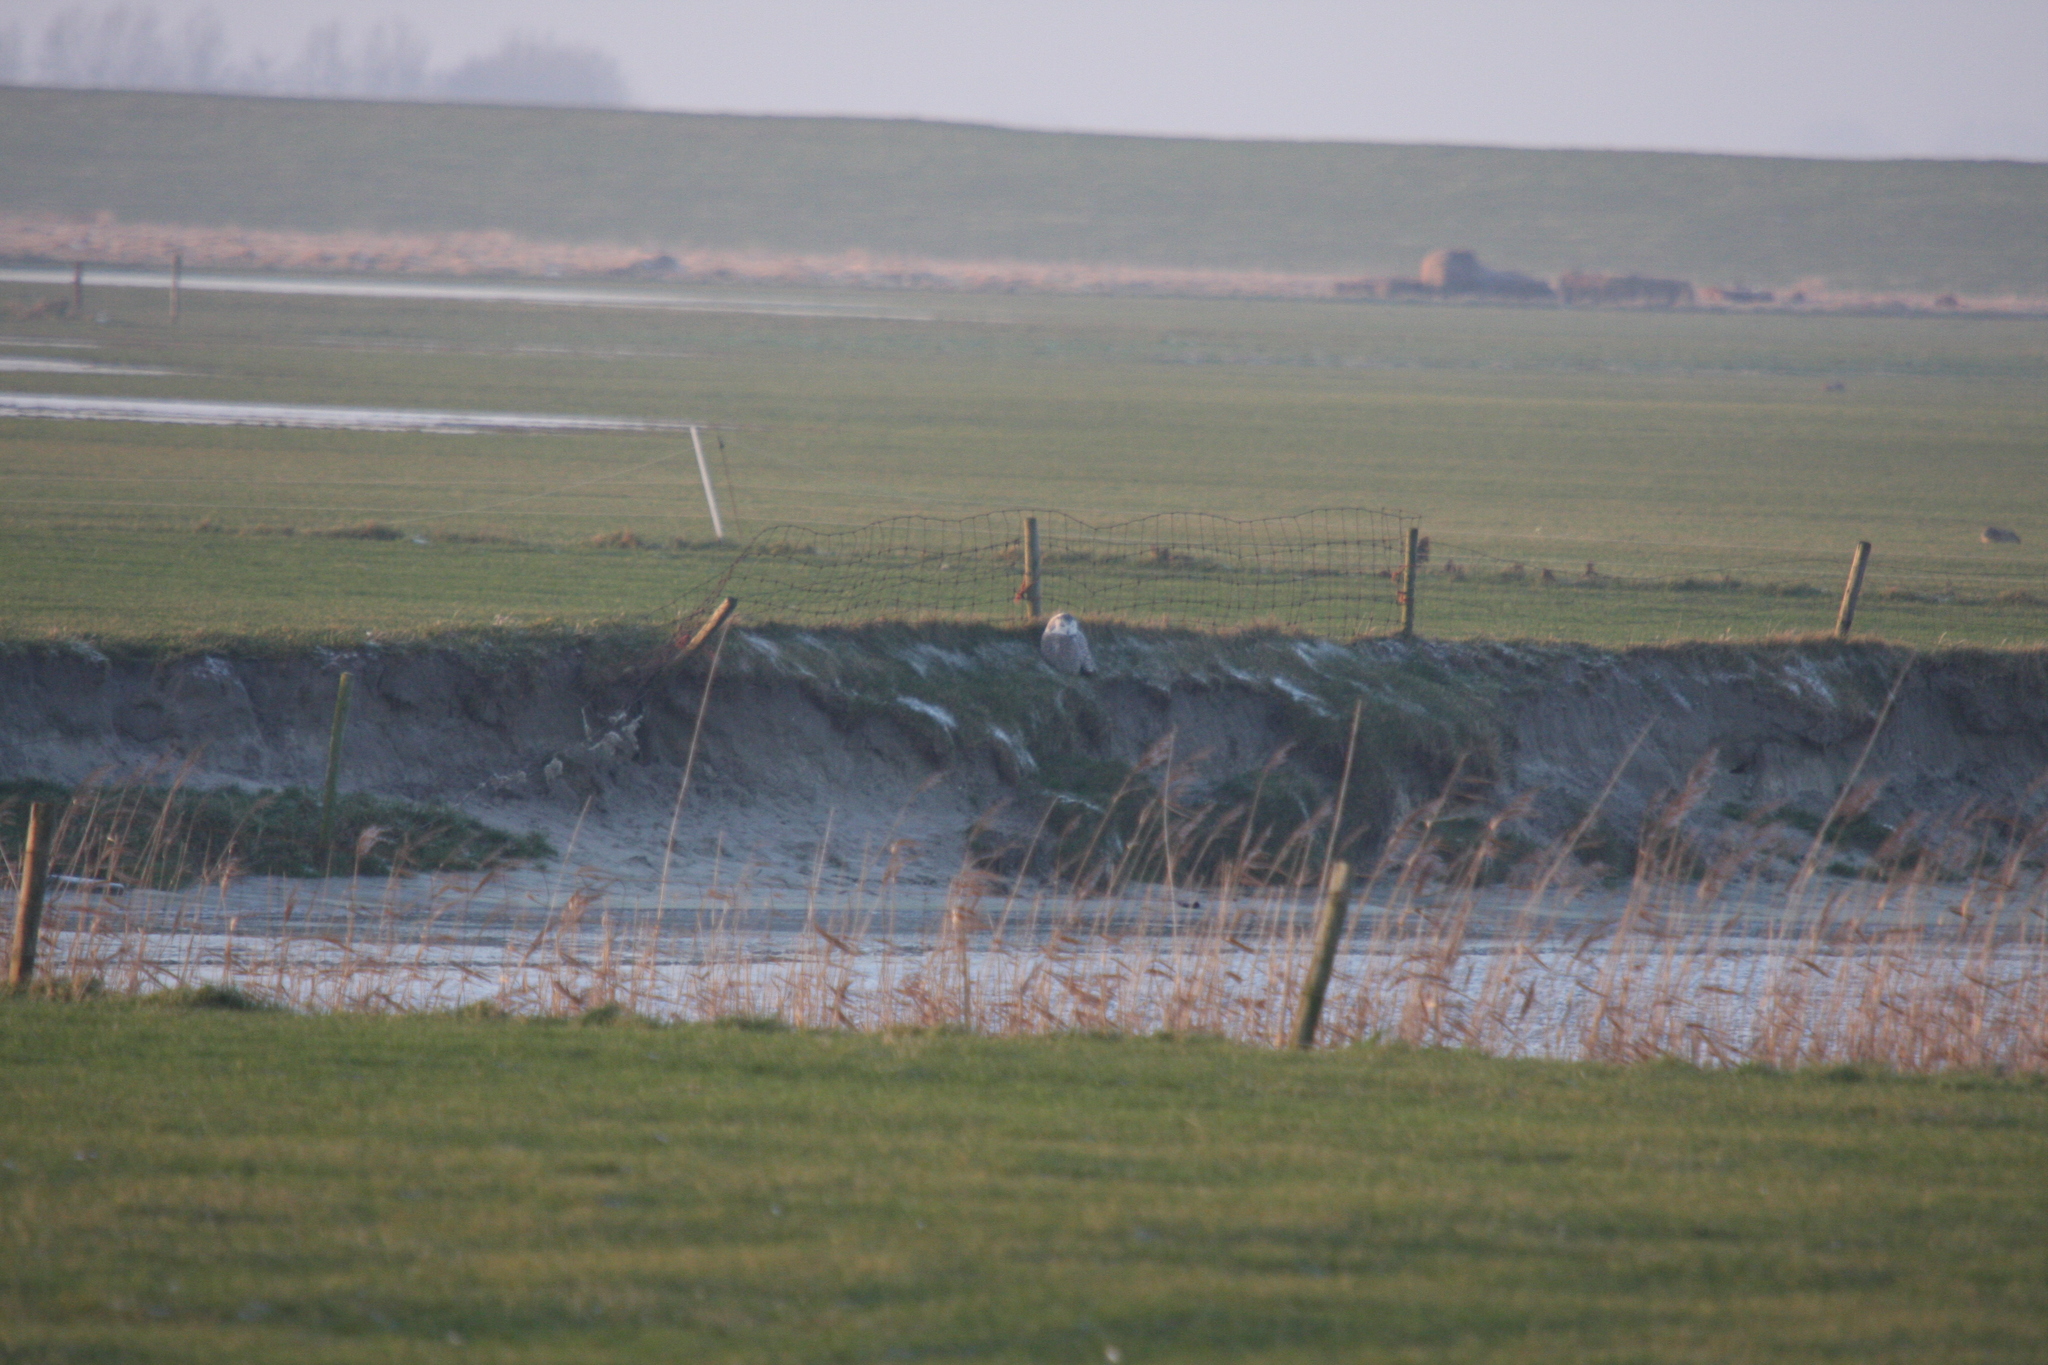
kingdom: Animalia
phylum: Chordata
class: Aves
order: Strigiformes
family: Strigidae
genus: Bubo
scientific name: Bubo scandiacus
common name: Snowy owl
